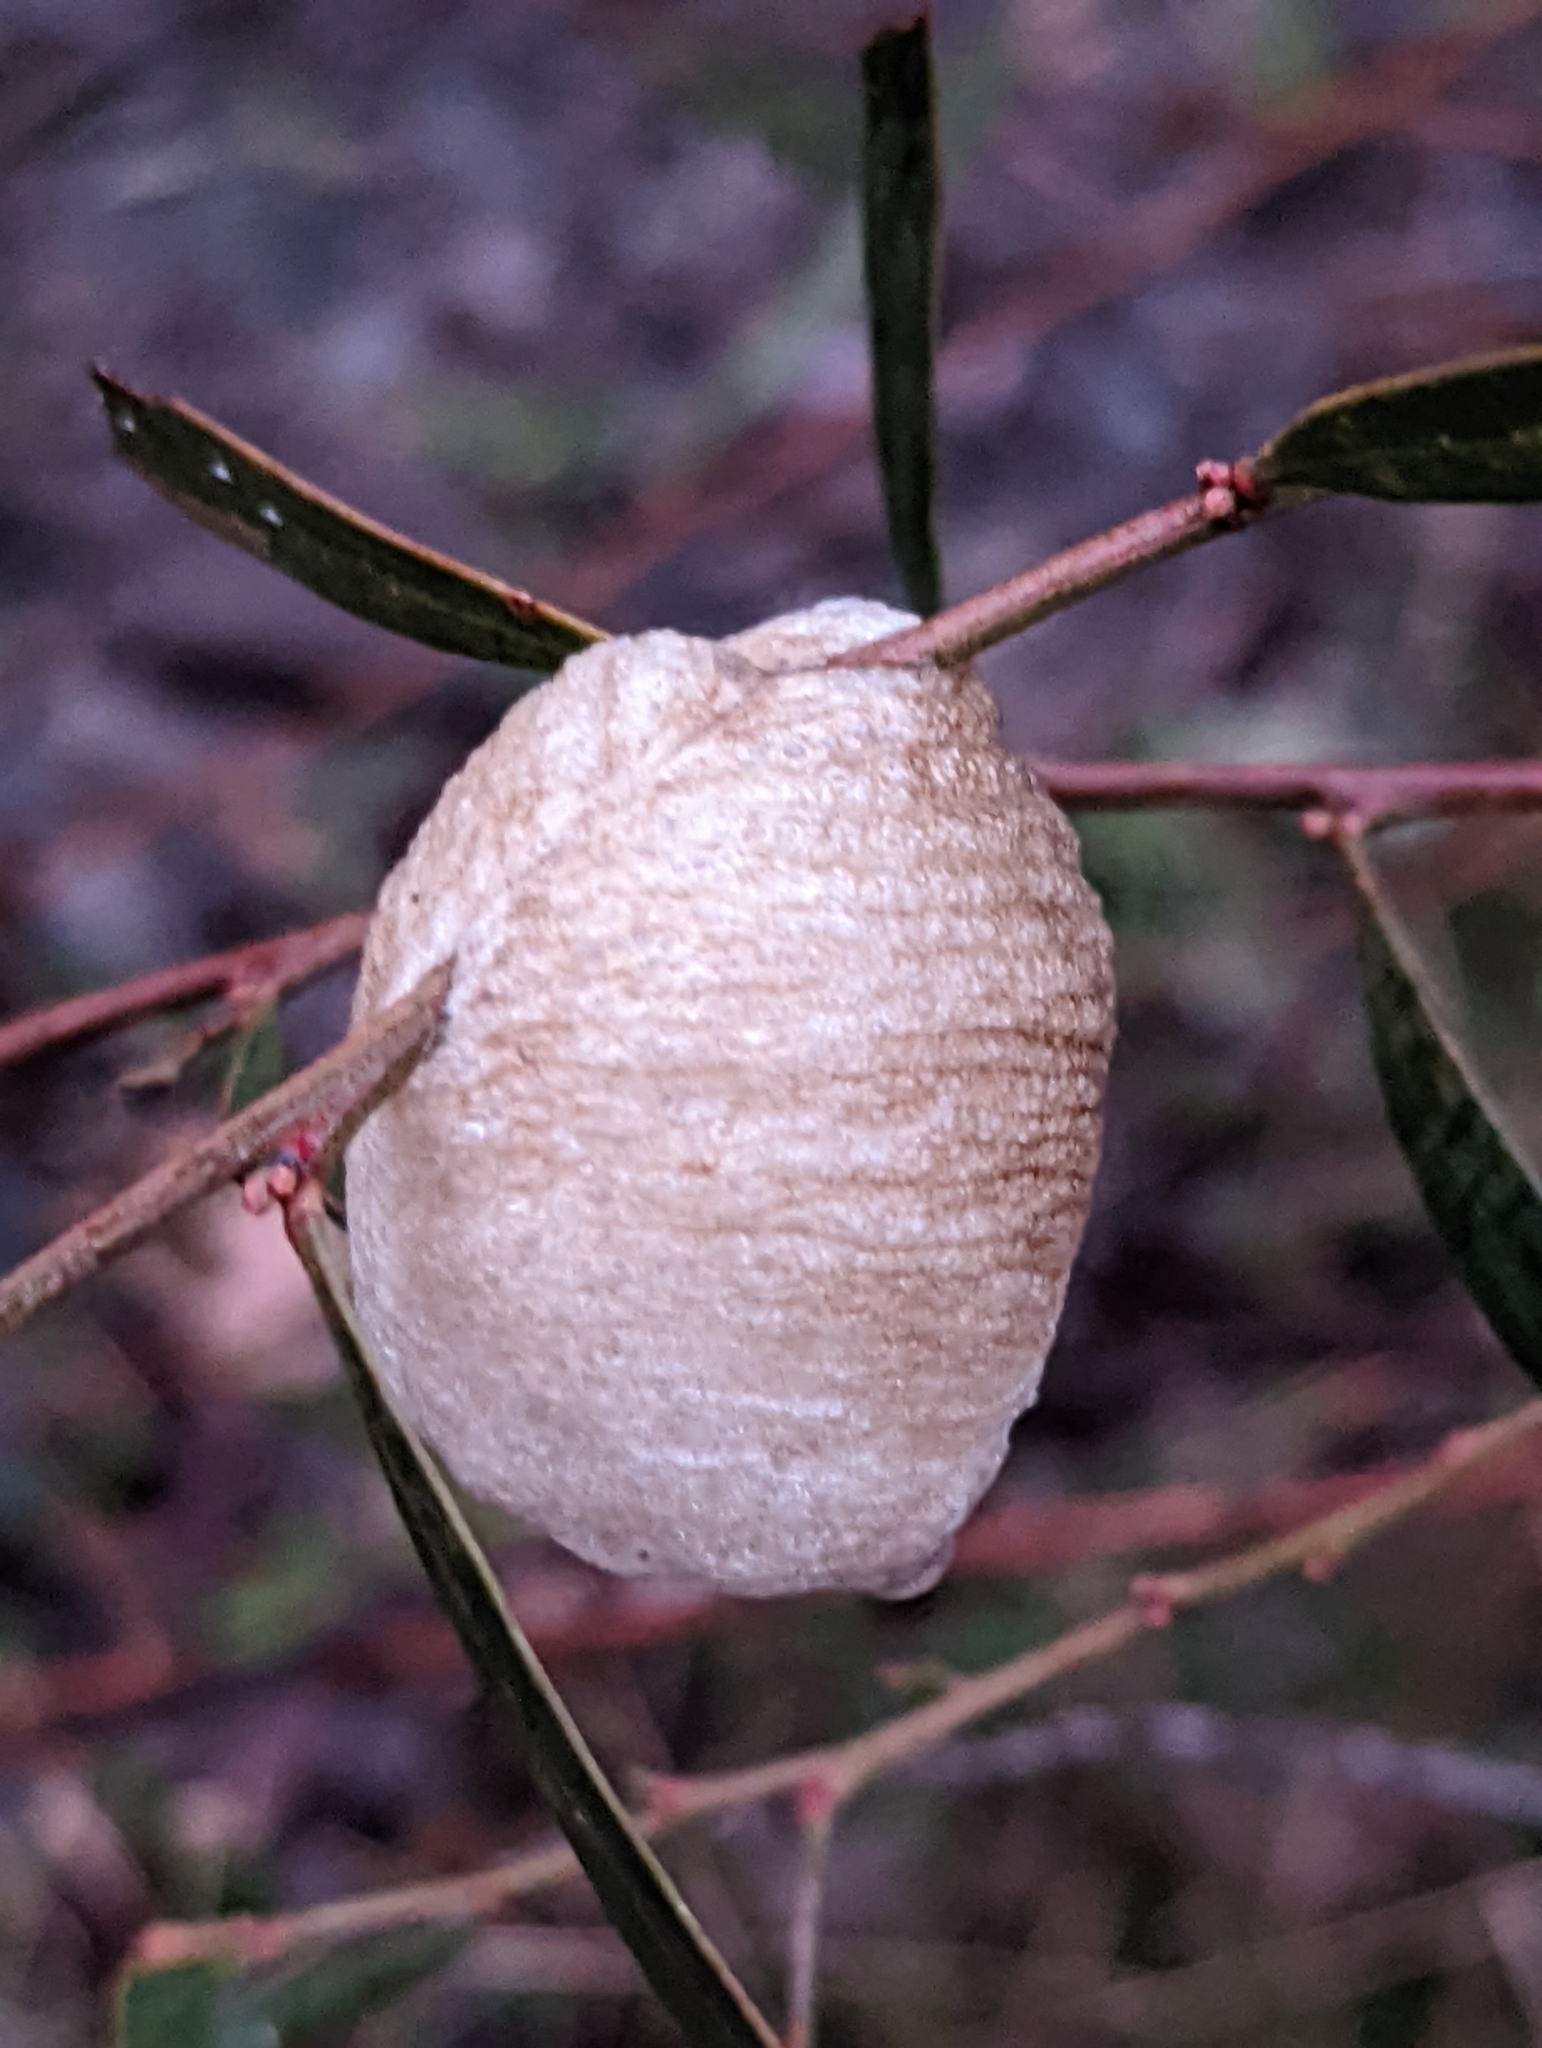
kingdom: Animalia
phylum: Arthropoda
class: Insecta
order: Mantodea
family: Mantidae
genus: Archimantis
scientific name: Archimantis latistyla
